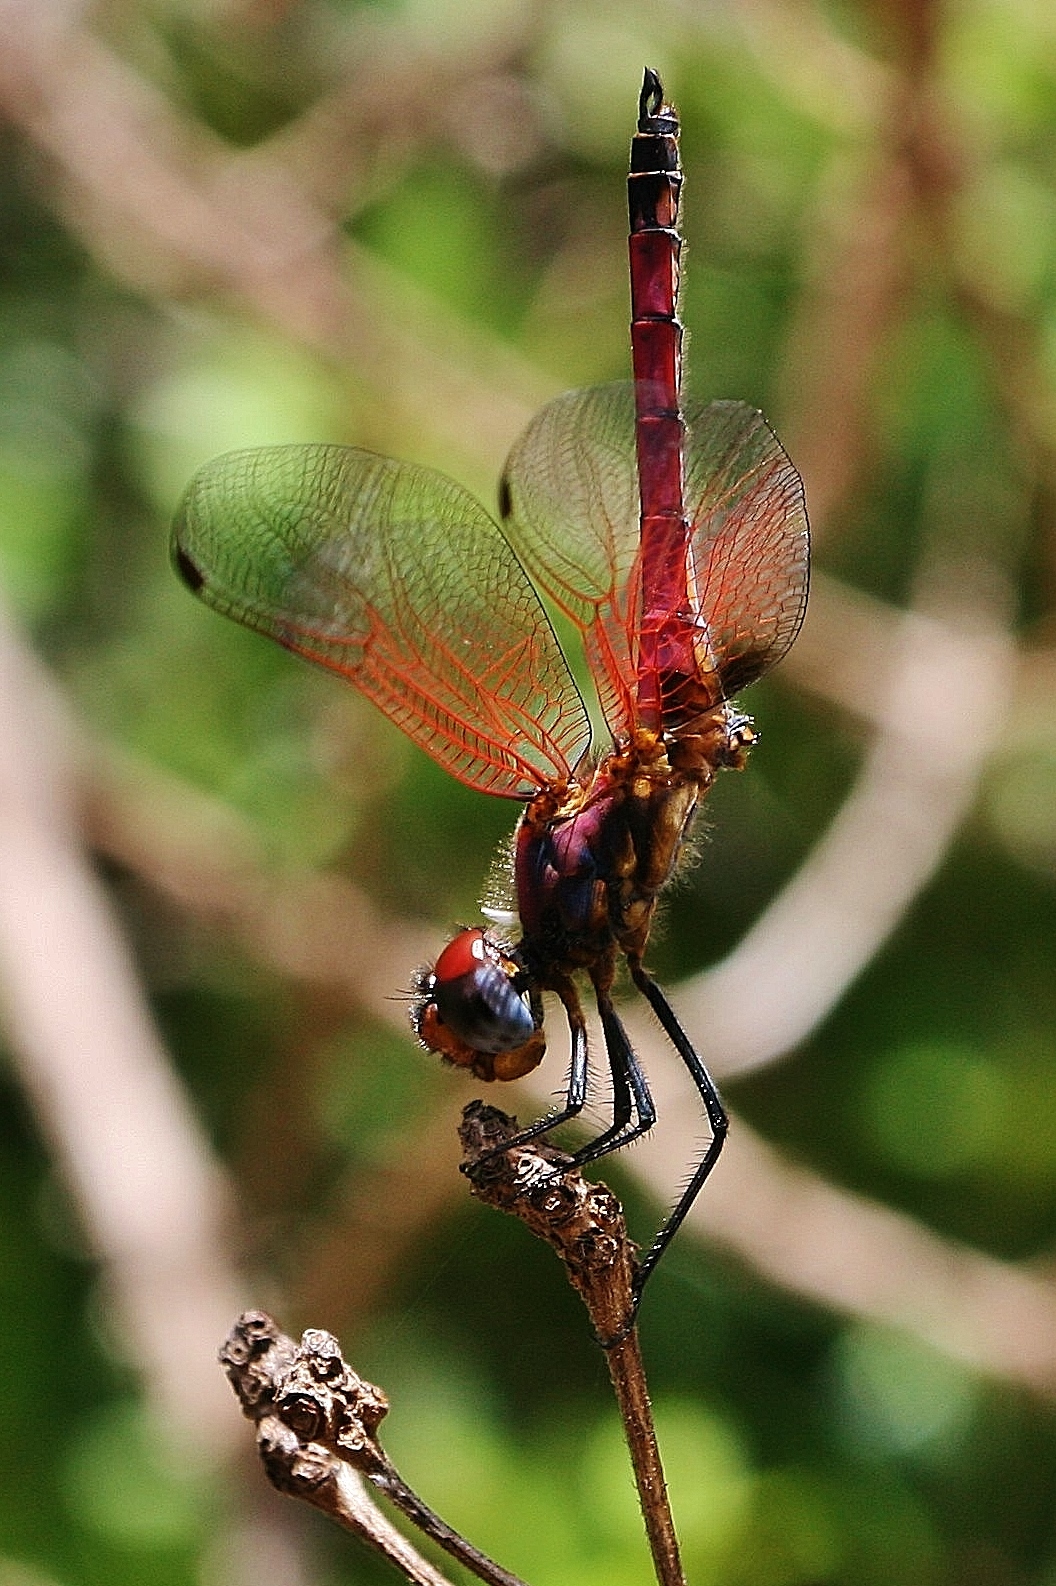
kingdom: Animalia
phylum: Arthropoda
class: Insecta
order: Odonata
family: Libellulidae
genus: Trithemis
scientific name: Trithemis selika
